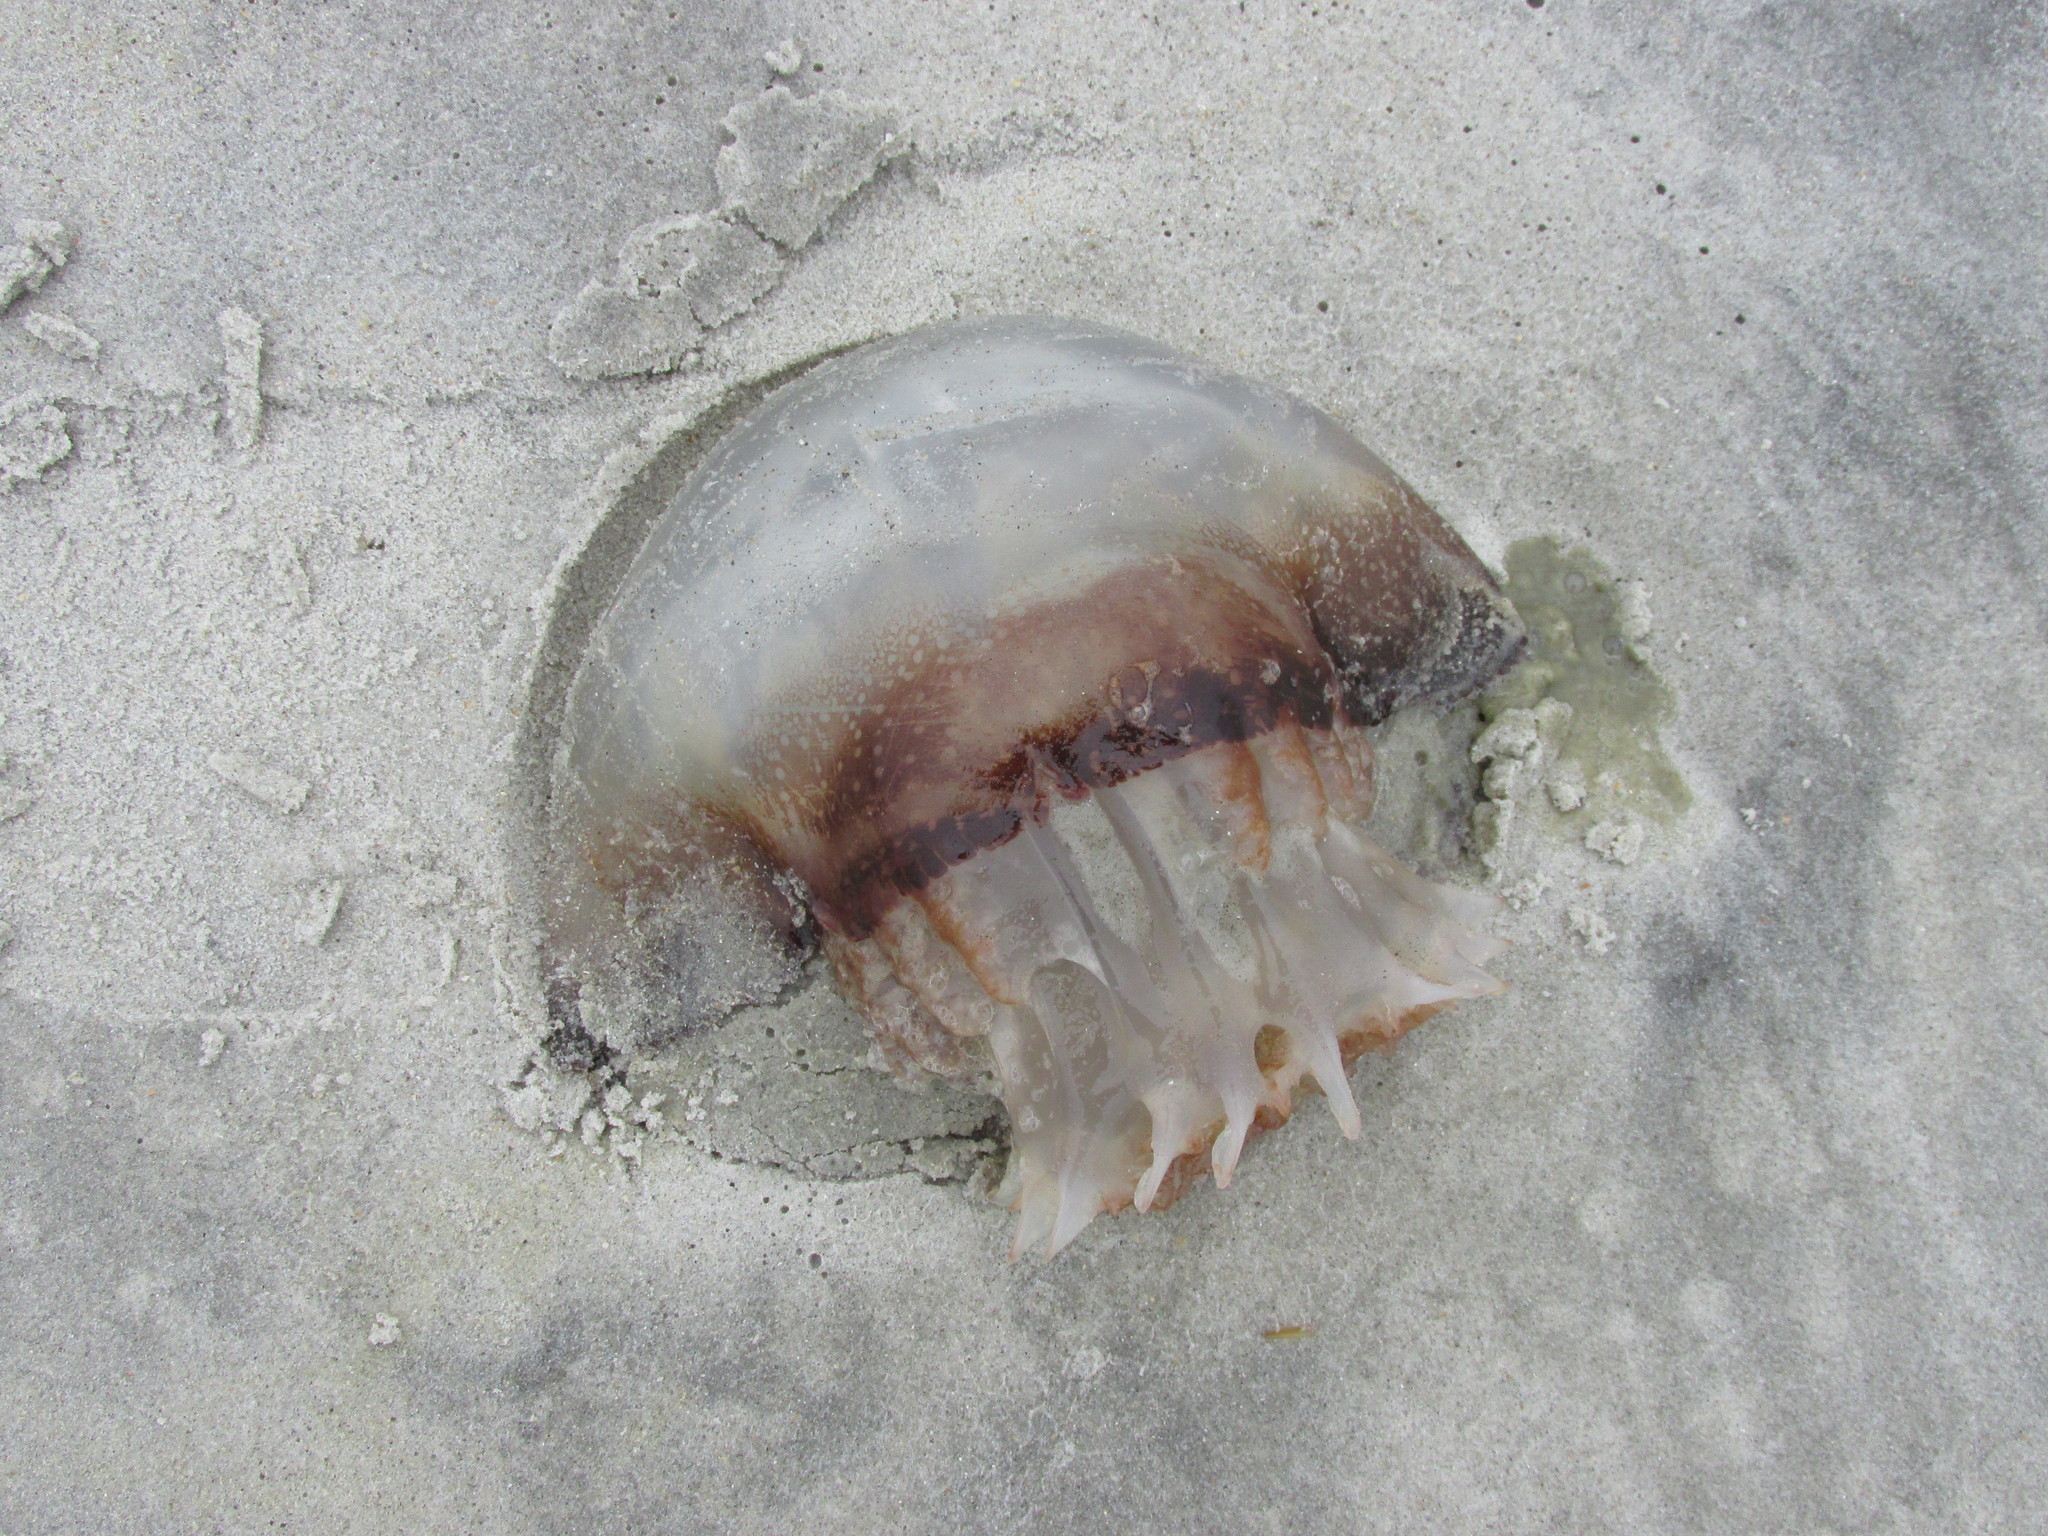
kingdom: Animalia
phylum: Cnidaria
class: Scyphozoa
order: Rhizostomeae
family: Stomolophidae
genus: Stomolophus
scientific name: Stomolophus meleagris
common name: Cabbagehead
